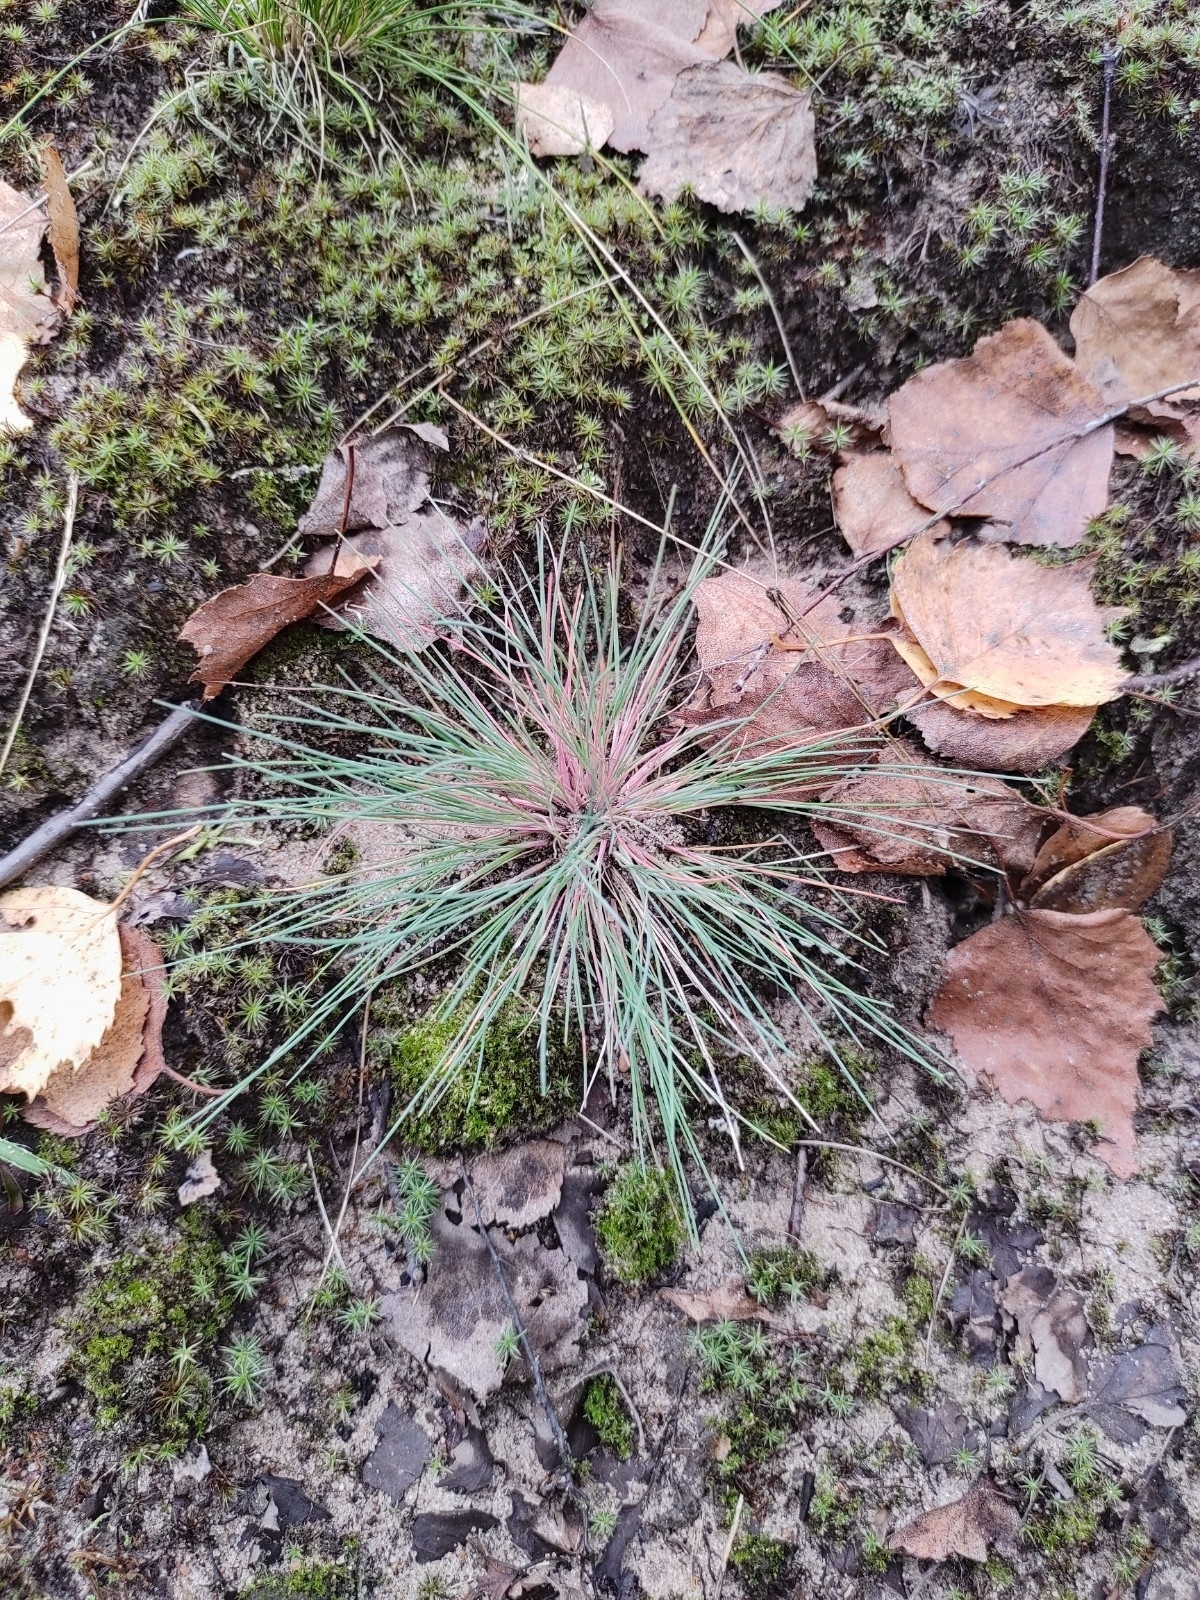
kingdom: Plantae
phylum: Tracheophyta
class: Liliopsida
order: Poales
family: Poaceae
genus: Corynephorus
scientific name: Corynephorus canescens
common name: Grey hair-grass
